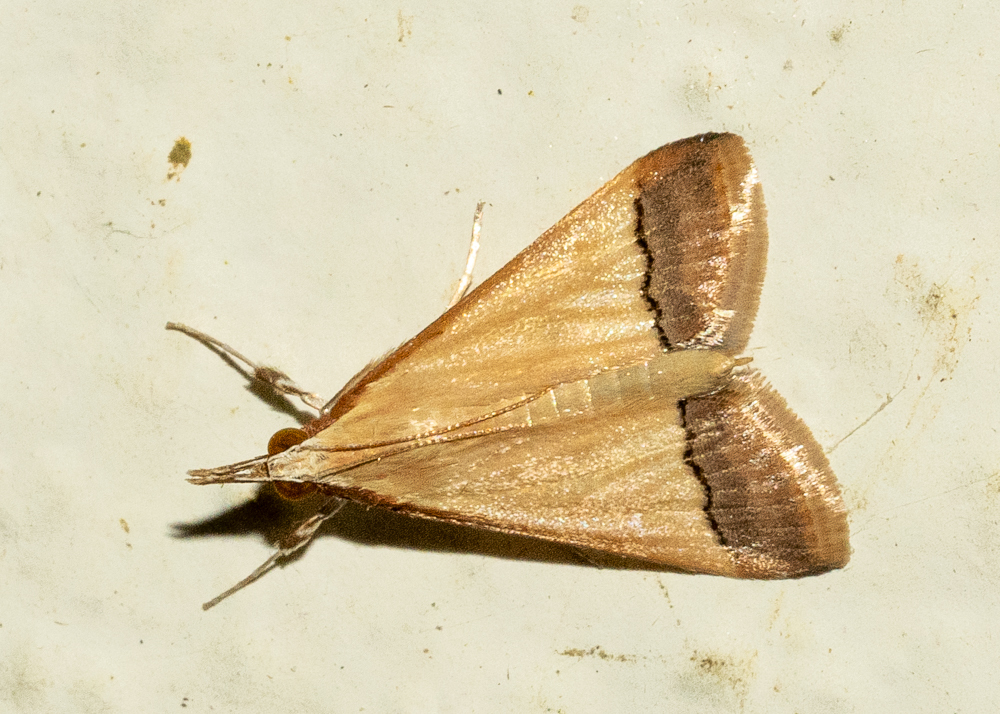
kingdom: Animalia
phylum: Arthropoda
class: Insecta
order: Lepidoptera
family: Crambidae
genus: Autocharis
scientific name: Autocharis fessalis
